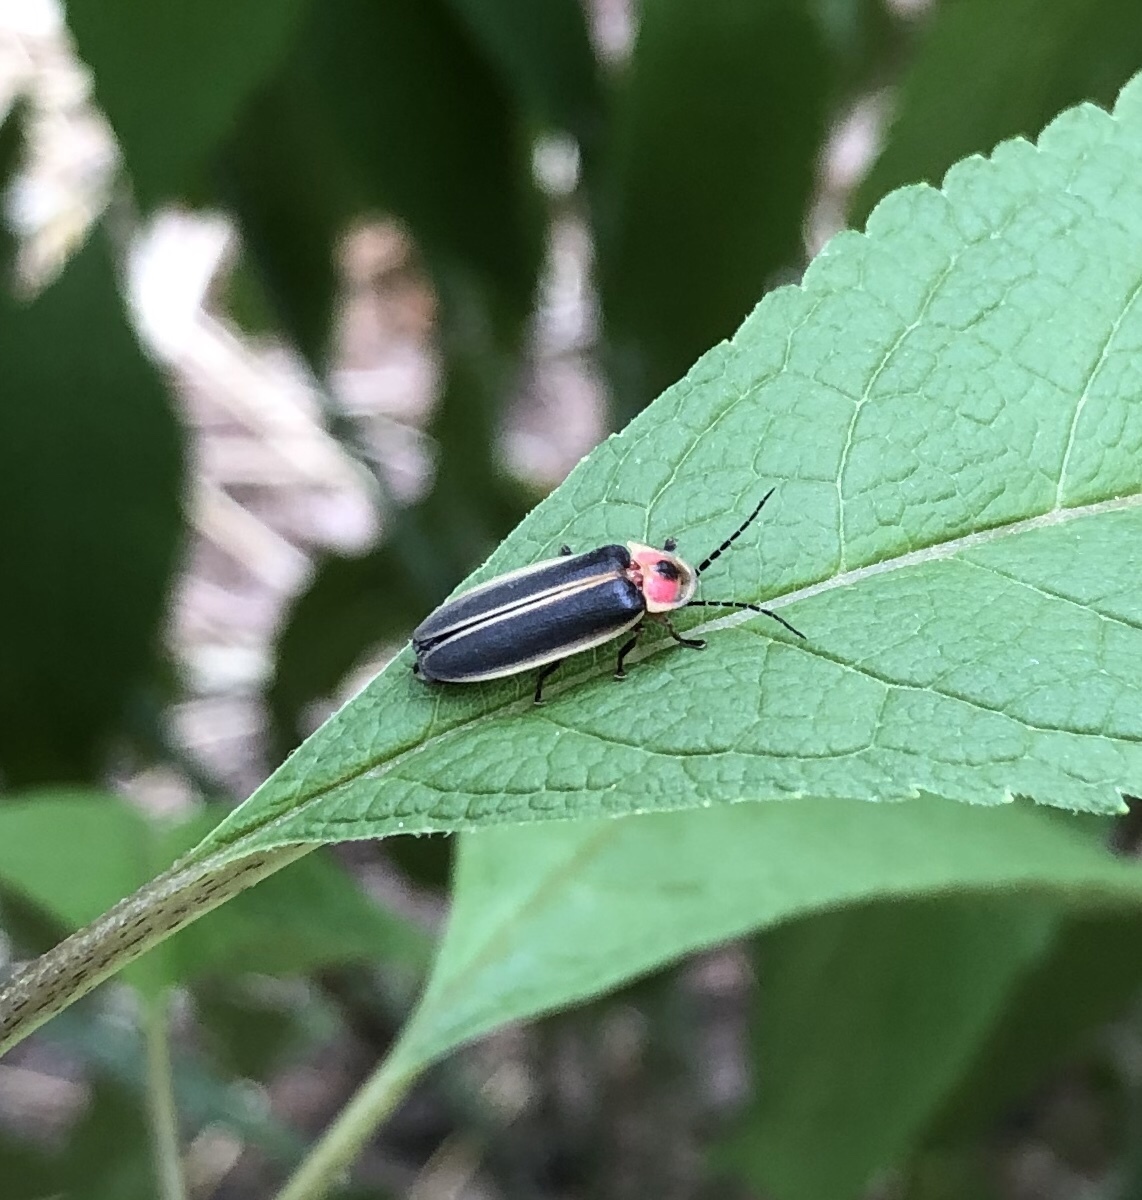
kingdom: Animalia
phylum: Arthropoda
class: Insecta
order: Coleoptera
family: Lampyridae
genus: Photinus
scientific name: Photinus pyralis
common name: Big dipper firefly
